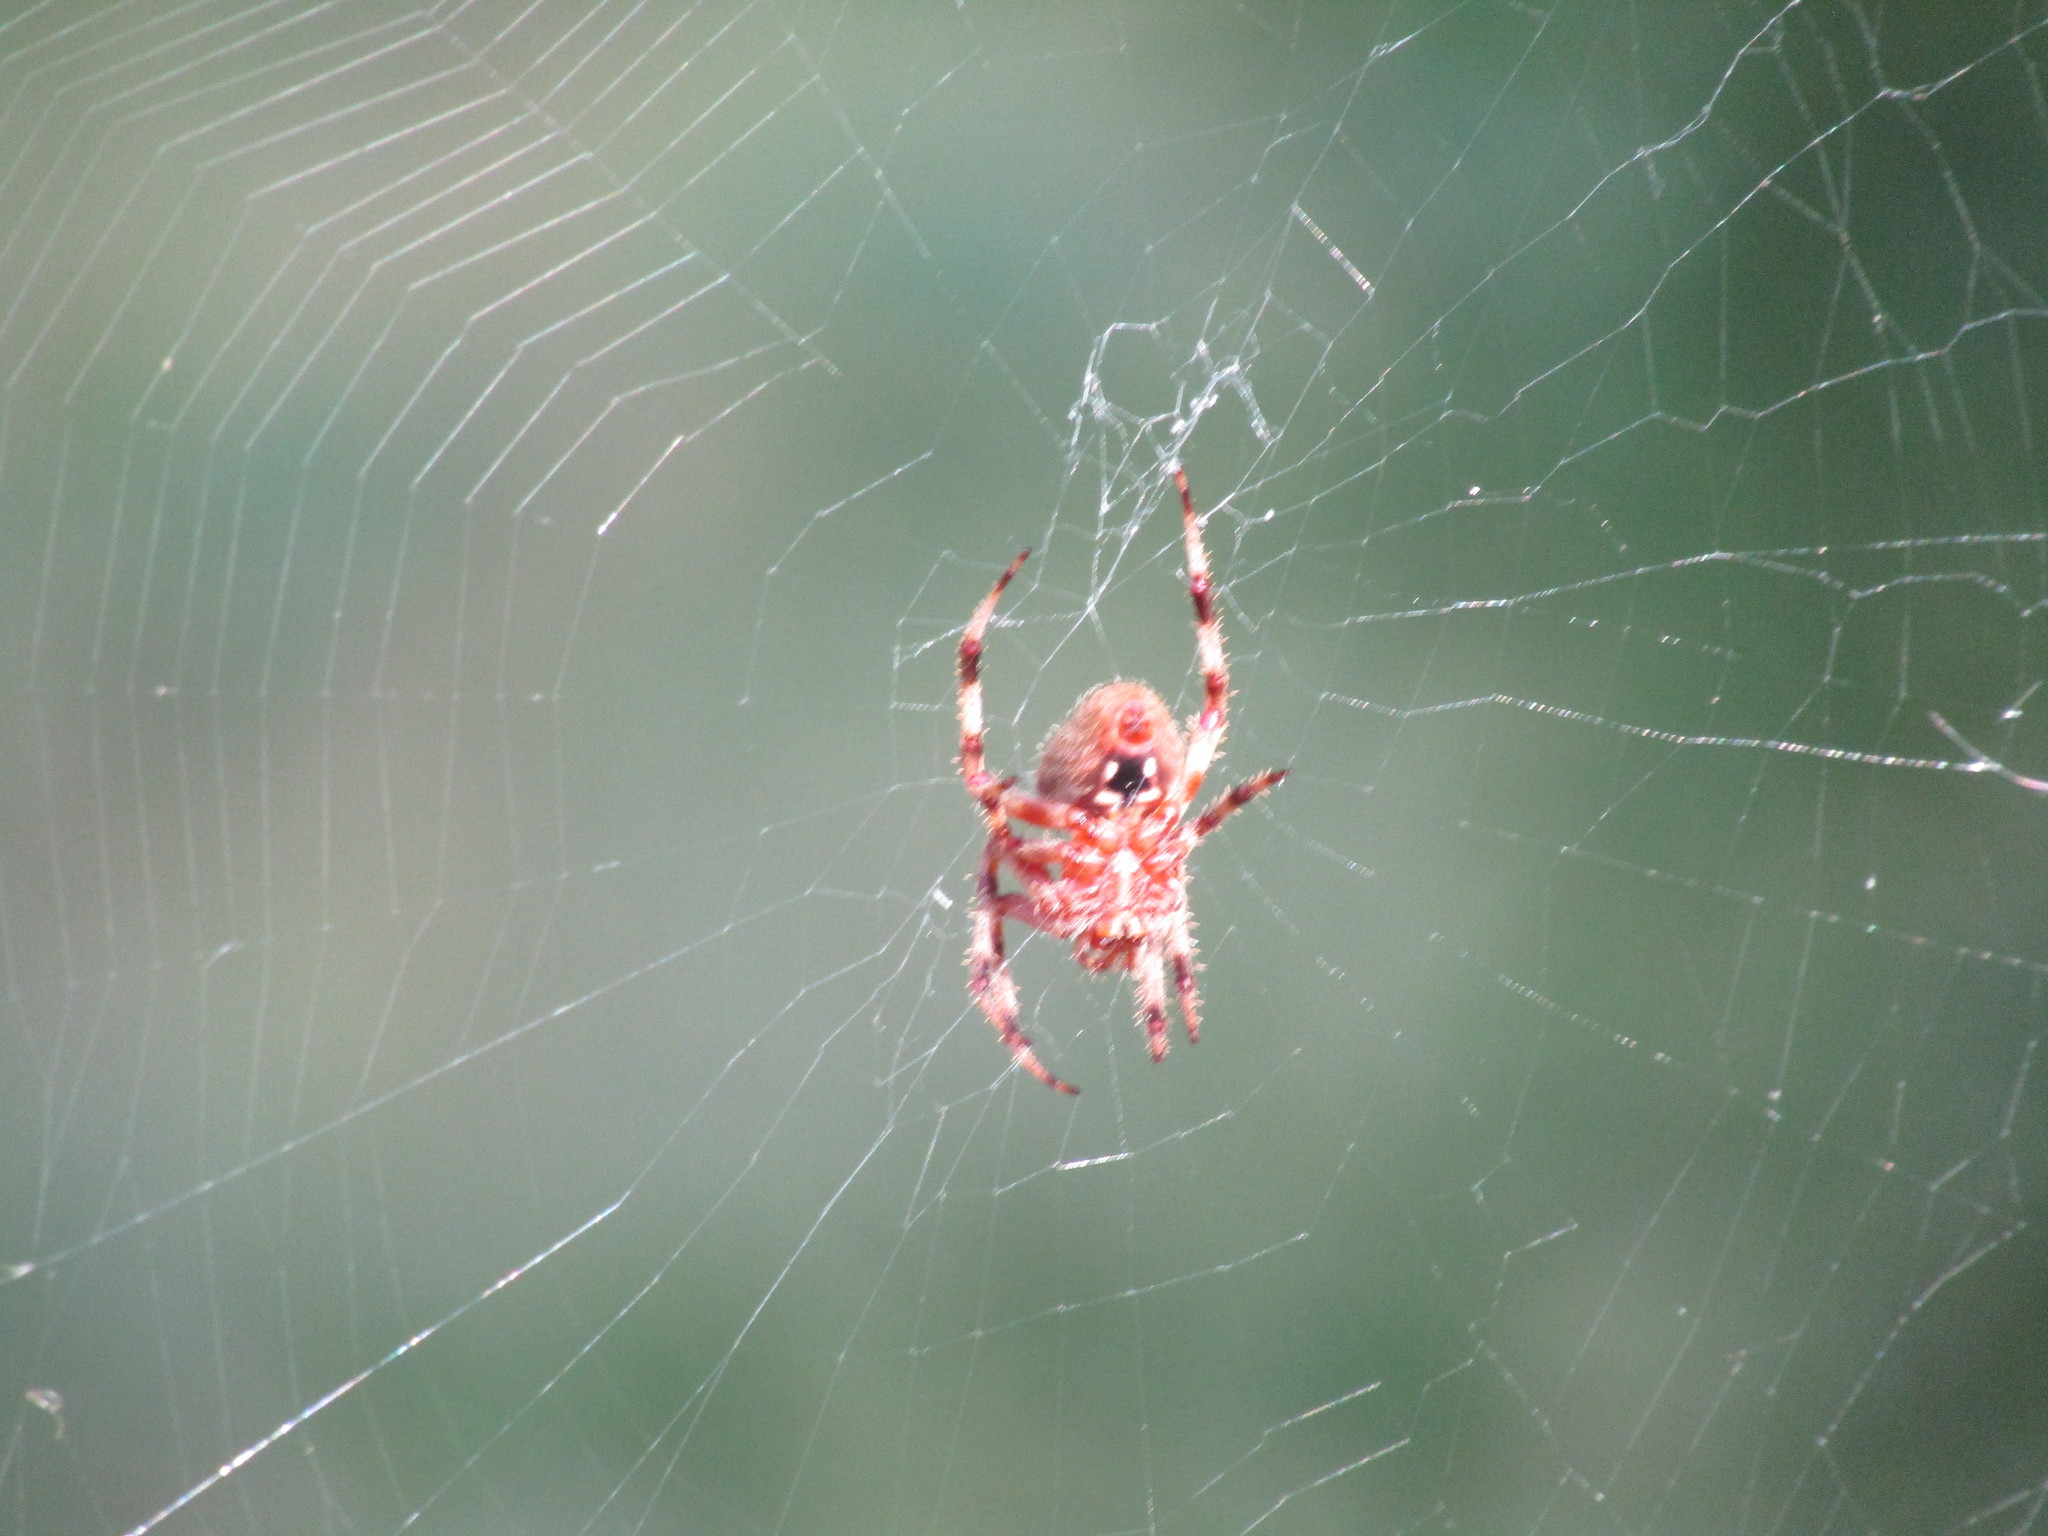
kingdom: Animalia
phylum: Arthropoda
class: Arachnida
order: Araneae
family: Araneidae
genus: Neoscona
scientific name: Neoscona crucifera
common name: Spotted orbweaver
